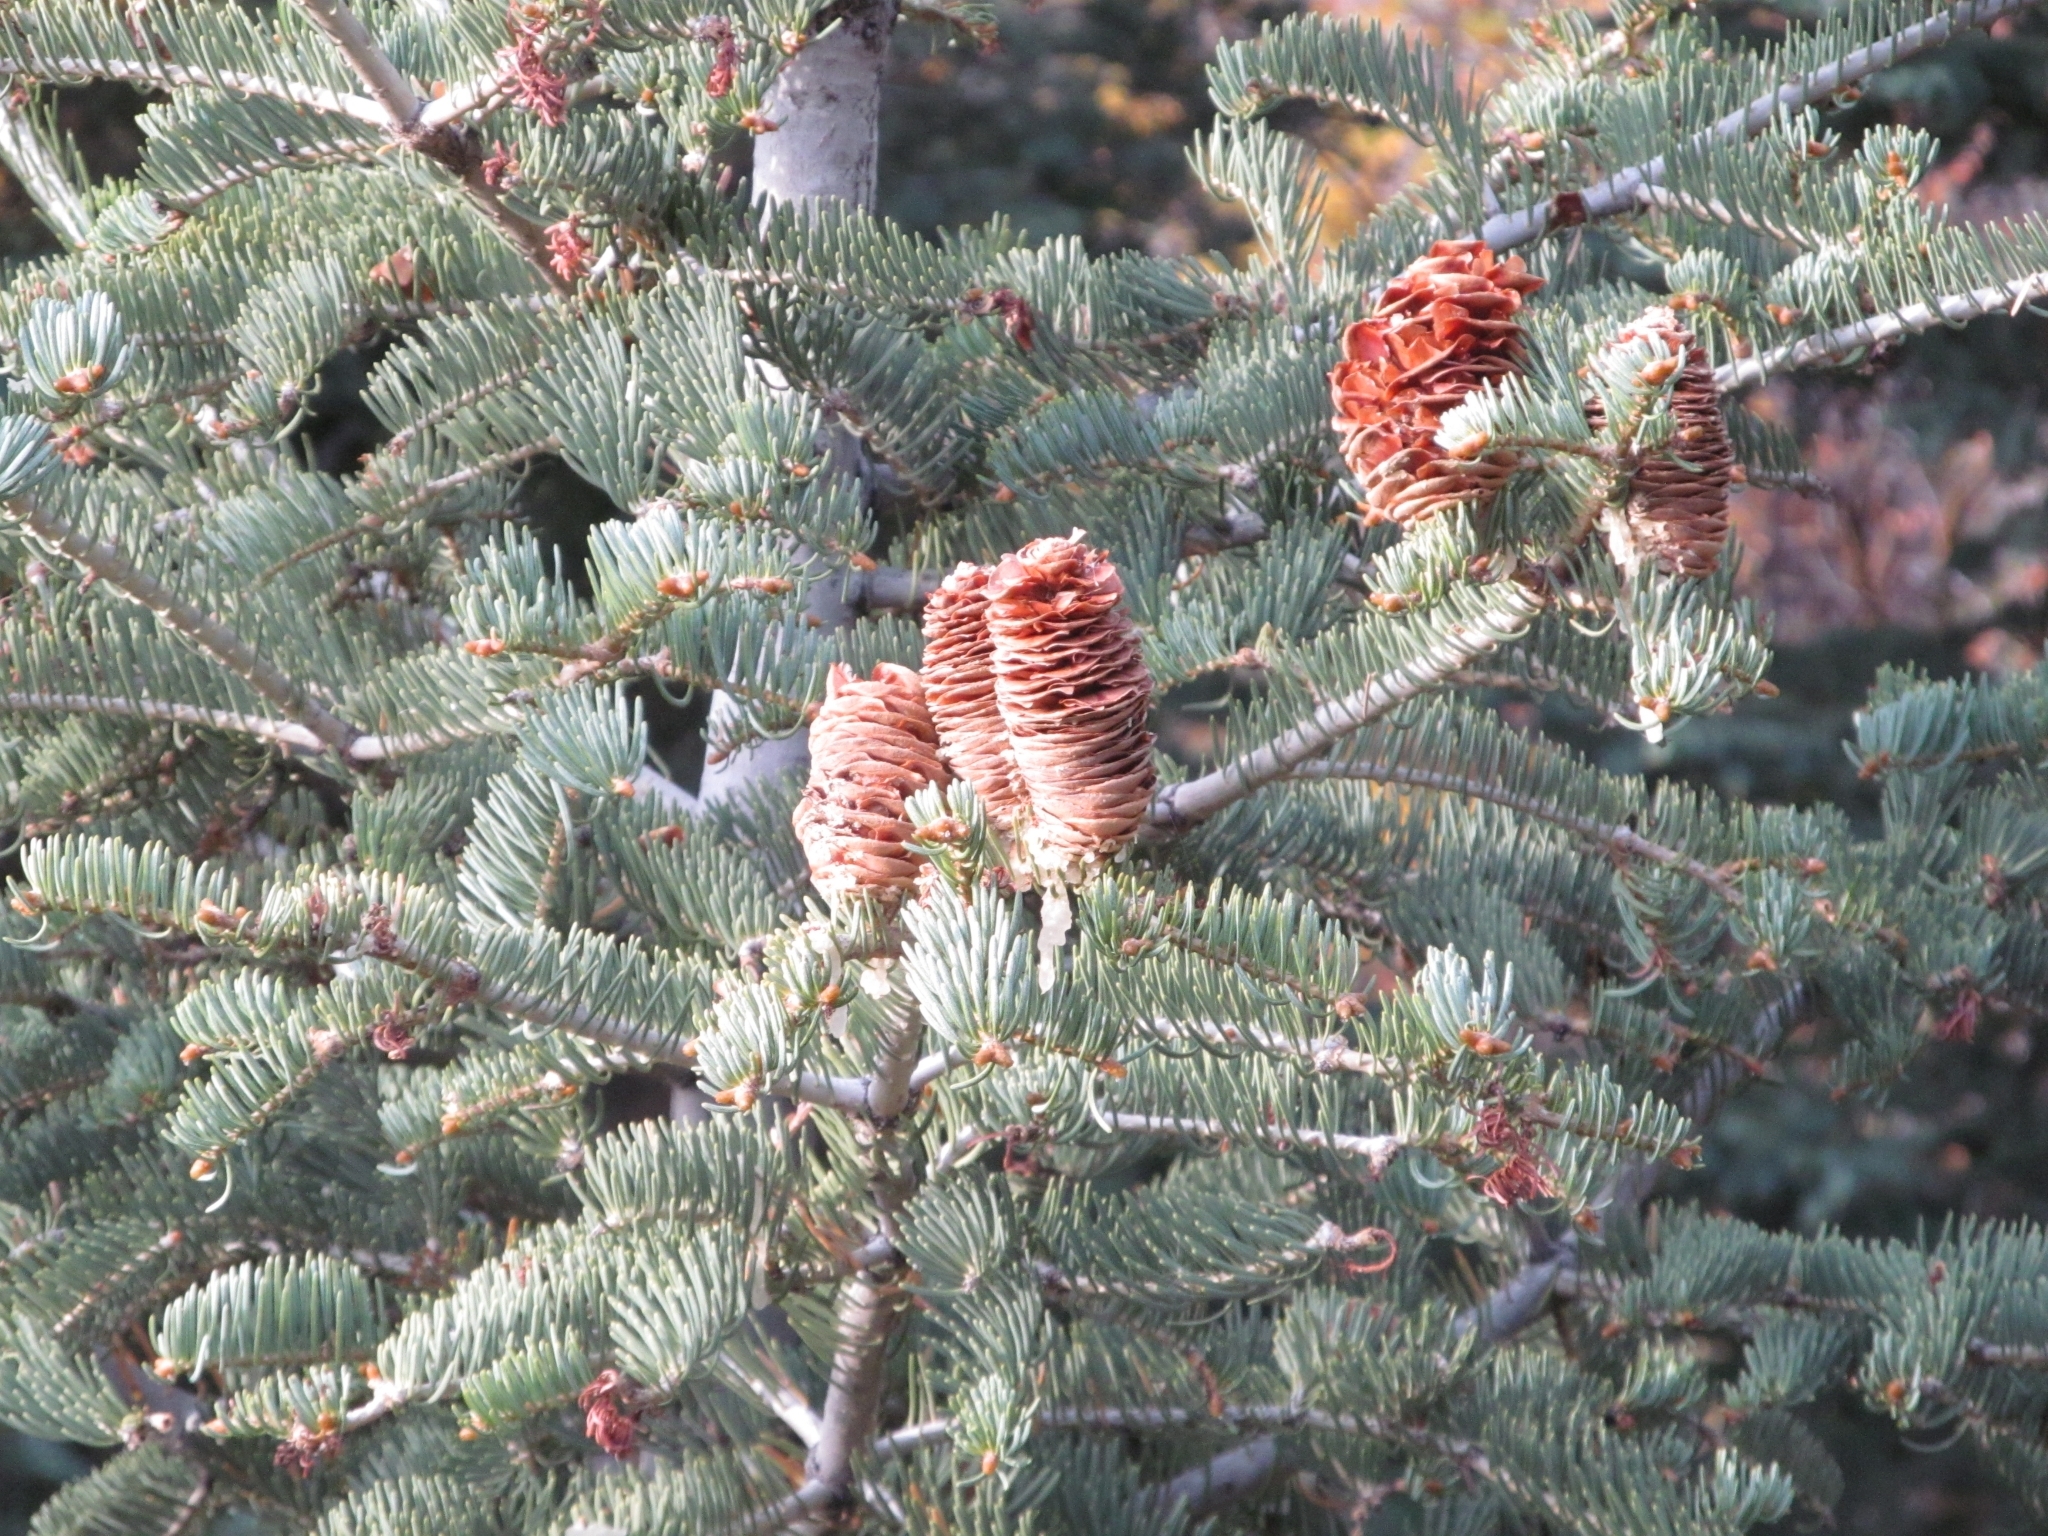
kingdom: Plantae
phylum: Tracheophyta
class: Pinopsida
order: Pinales
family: Pinaceae
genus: Abies
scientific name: Abies concolor
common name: Colorado fir
